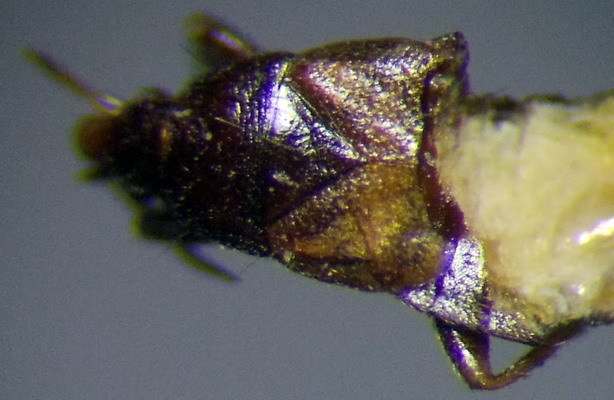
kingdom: Animalia
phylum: Arthropoda
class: Insecta
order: Hemiptera
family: Anthocoridae
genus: Xylocoris
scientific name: Xylocoris cursitans
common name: Minute pirate bug
